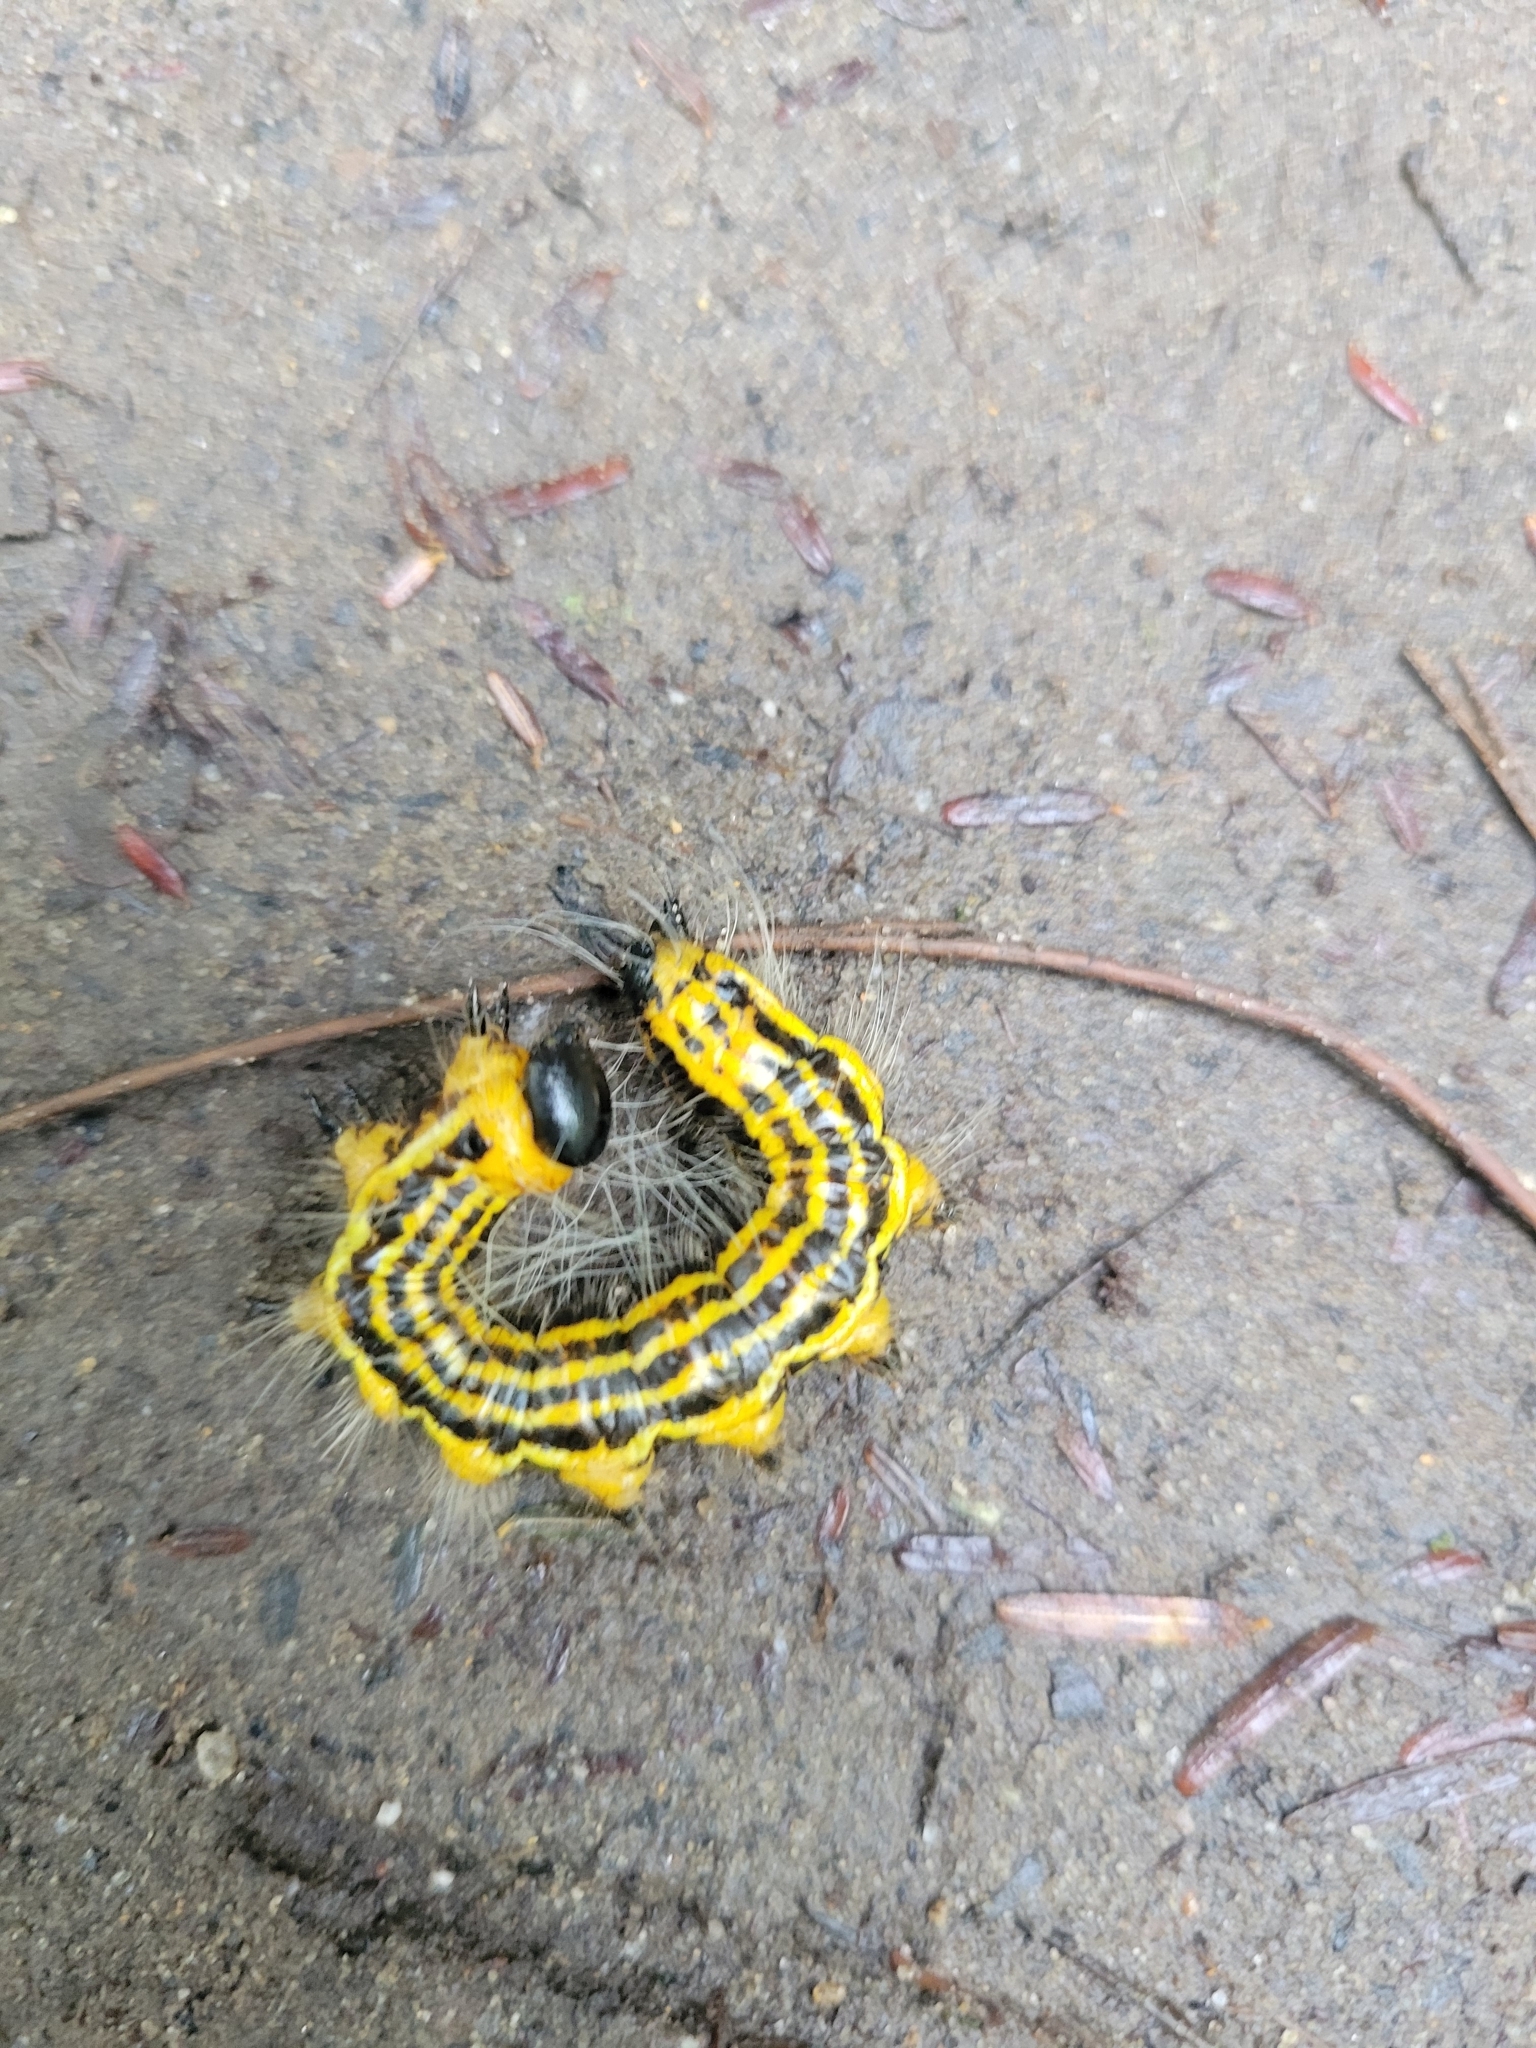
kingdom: Animalia
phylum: Arthropoda
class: Insecta
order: Lepidoptera
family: Notodontidae
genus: Datana
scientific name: Datana drexelii
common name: Drexel's datana
